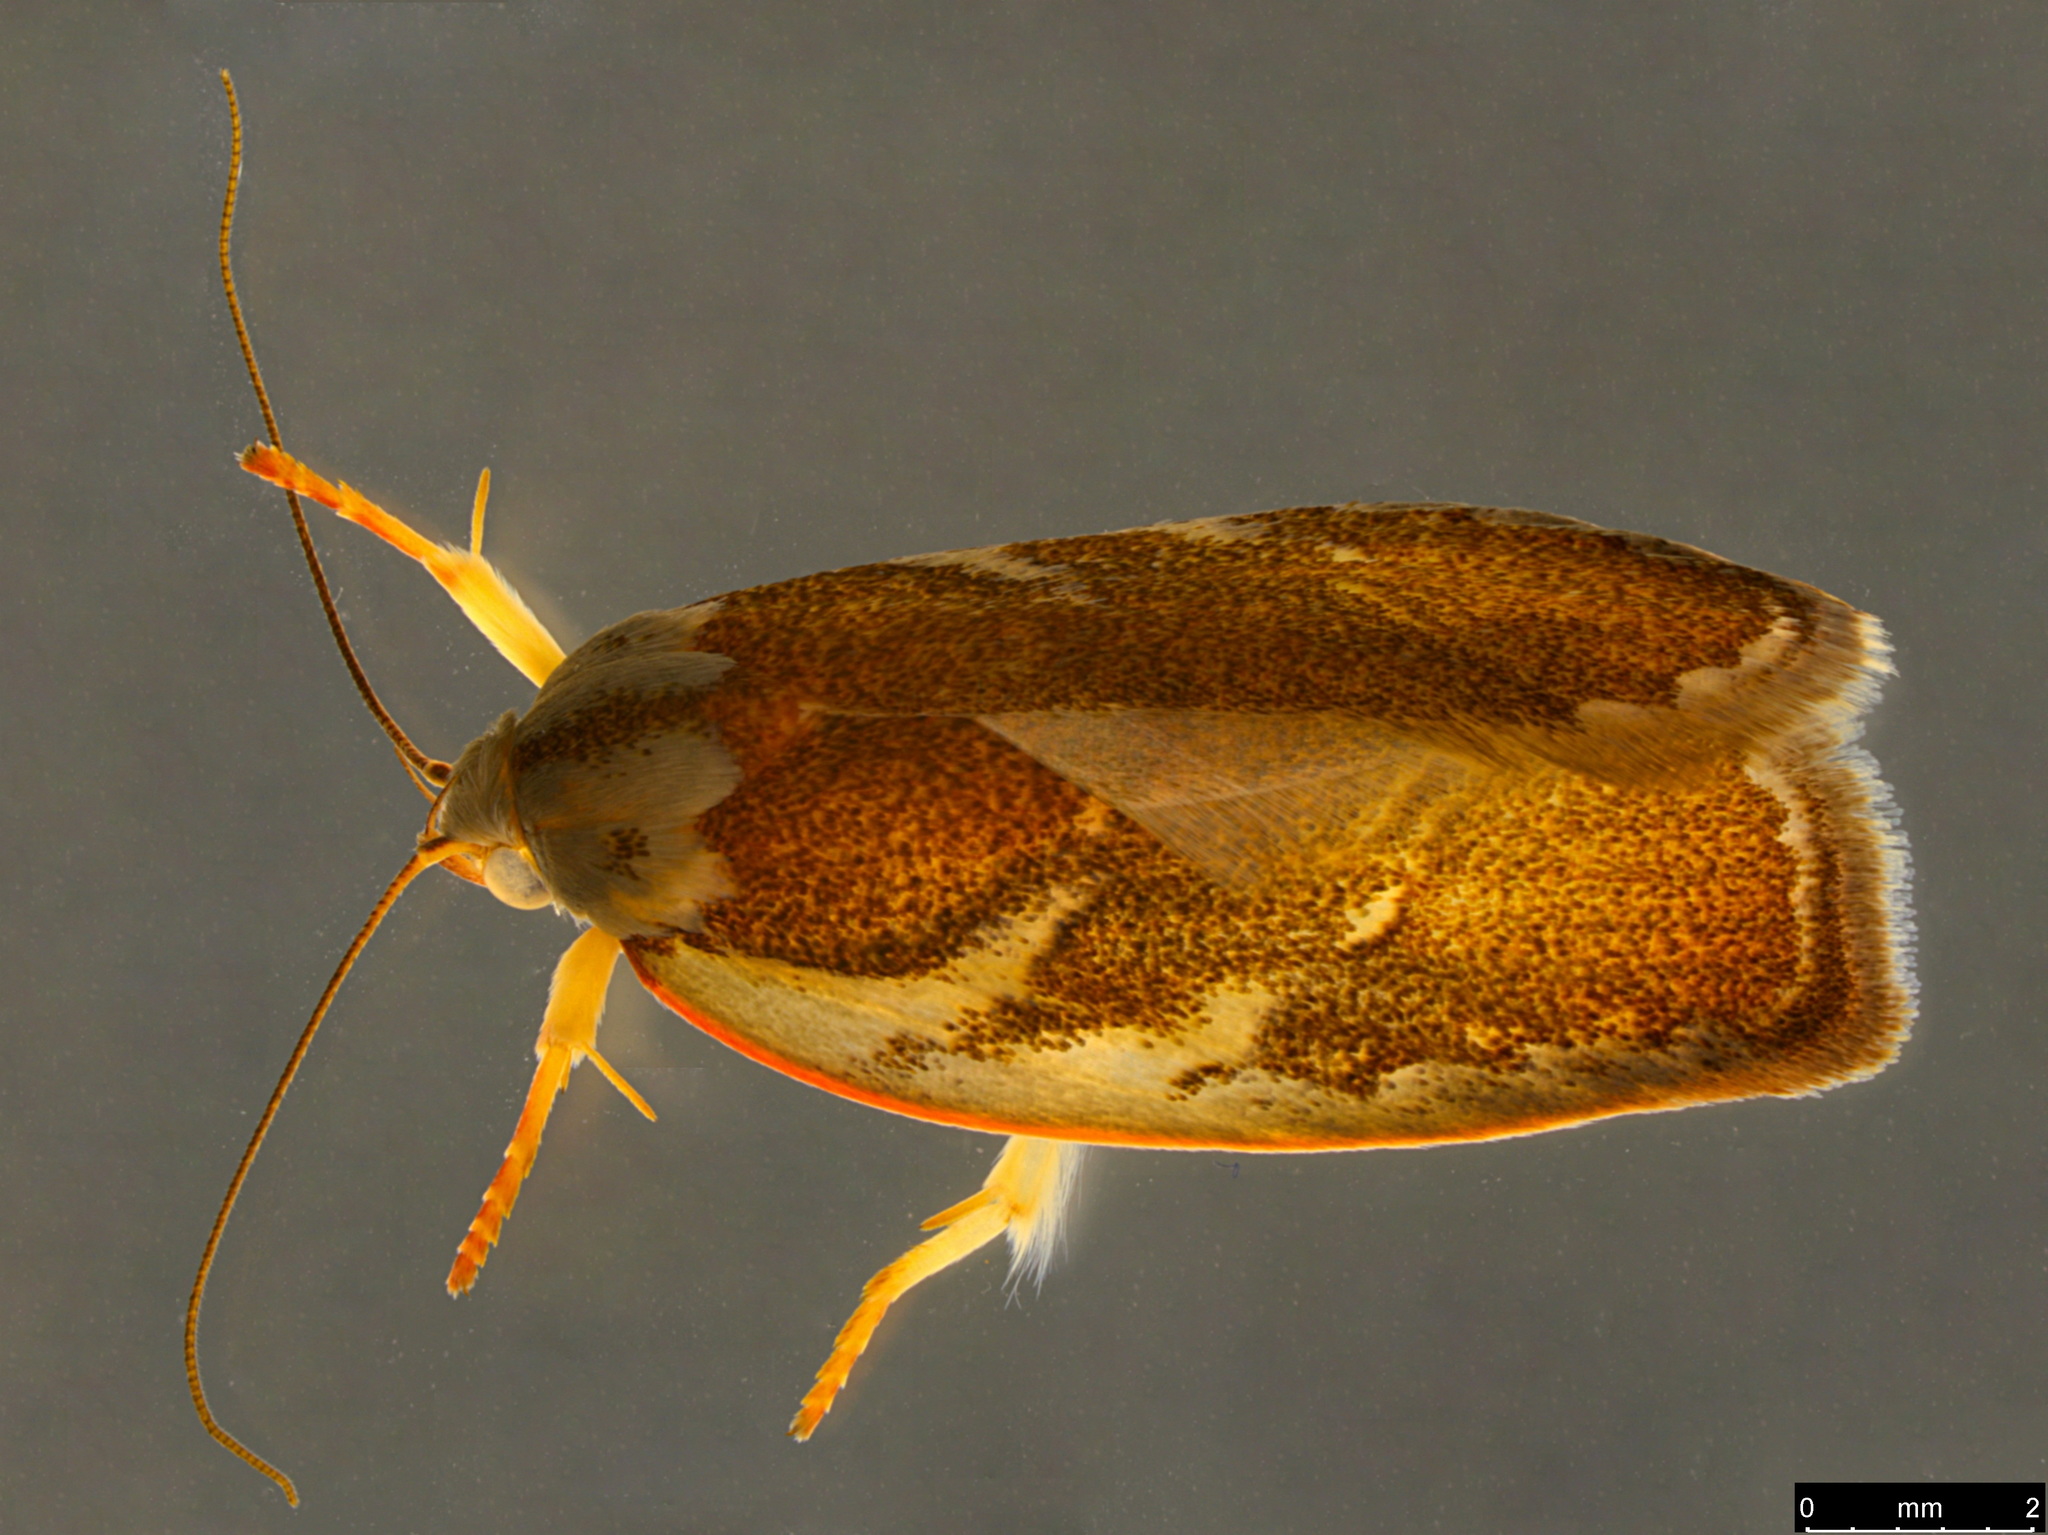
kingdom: Animalia
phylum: Arthropoda
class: Insecta
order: Lepidoptera
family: Oecophoridae
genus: Euchaetis
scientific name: Euchaetis rhizobola
